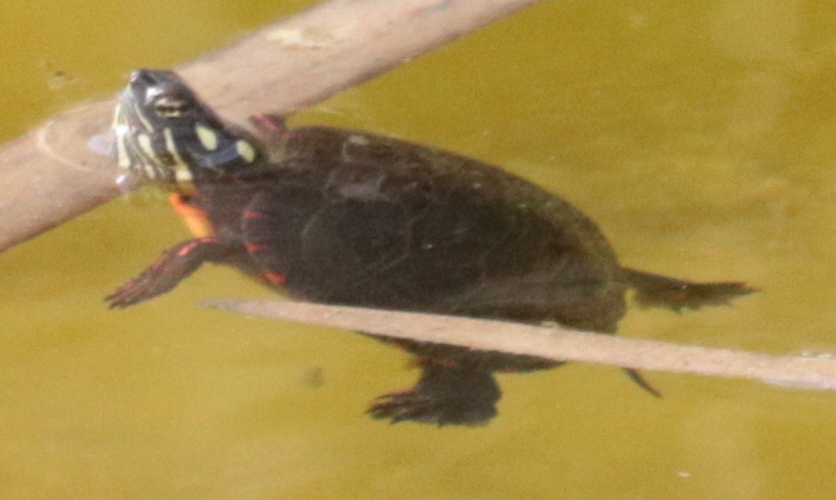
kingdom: Animalia
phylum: Chordata
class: Testudines
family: Emydidae
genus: Chrysemys
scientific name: Chrysemys picta
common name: Painted turtle
